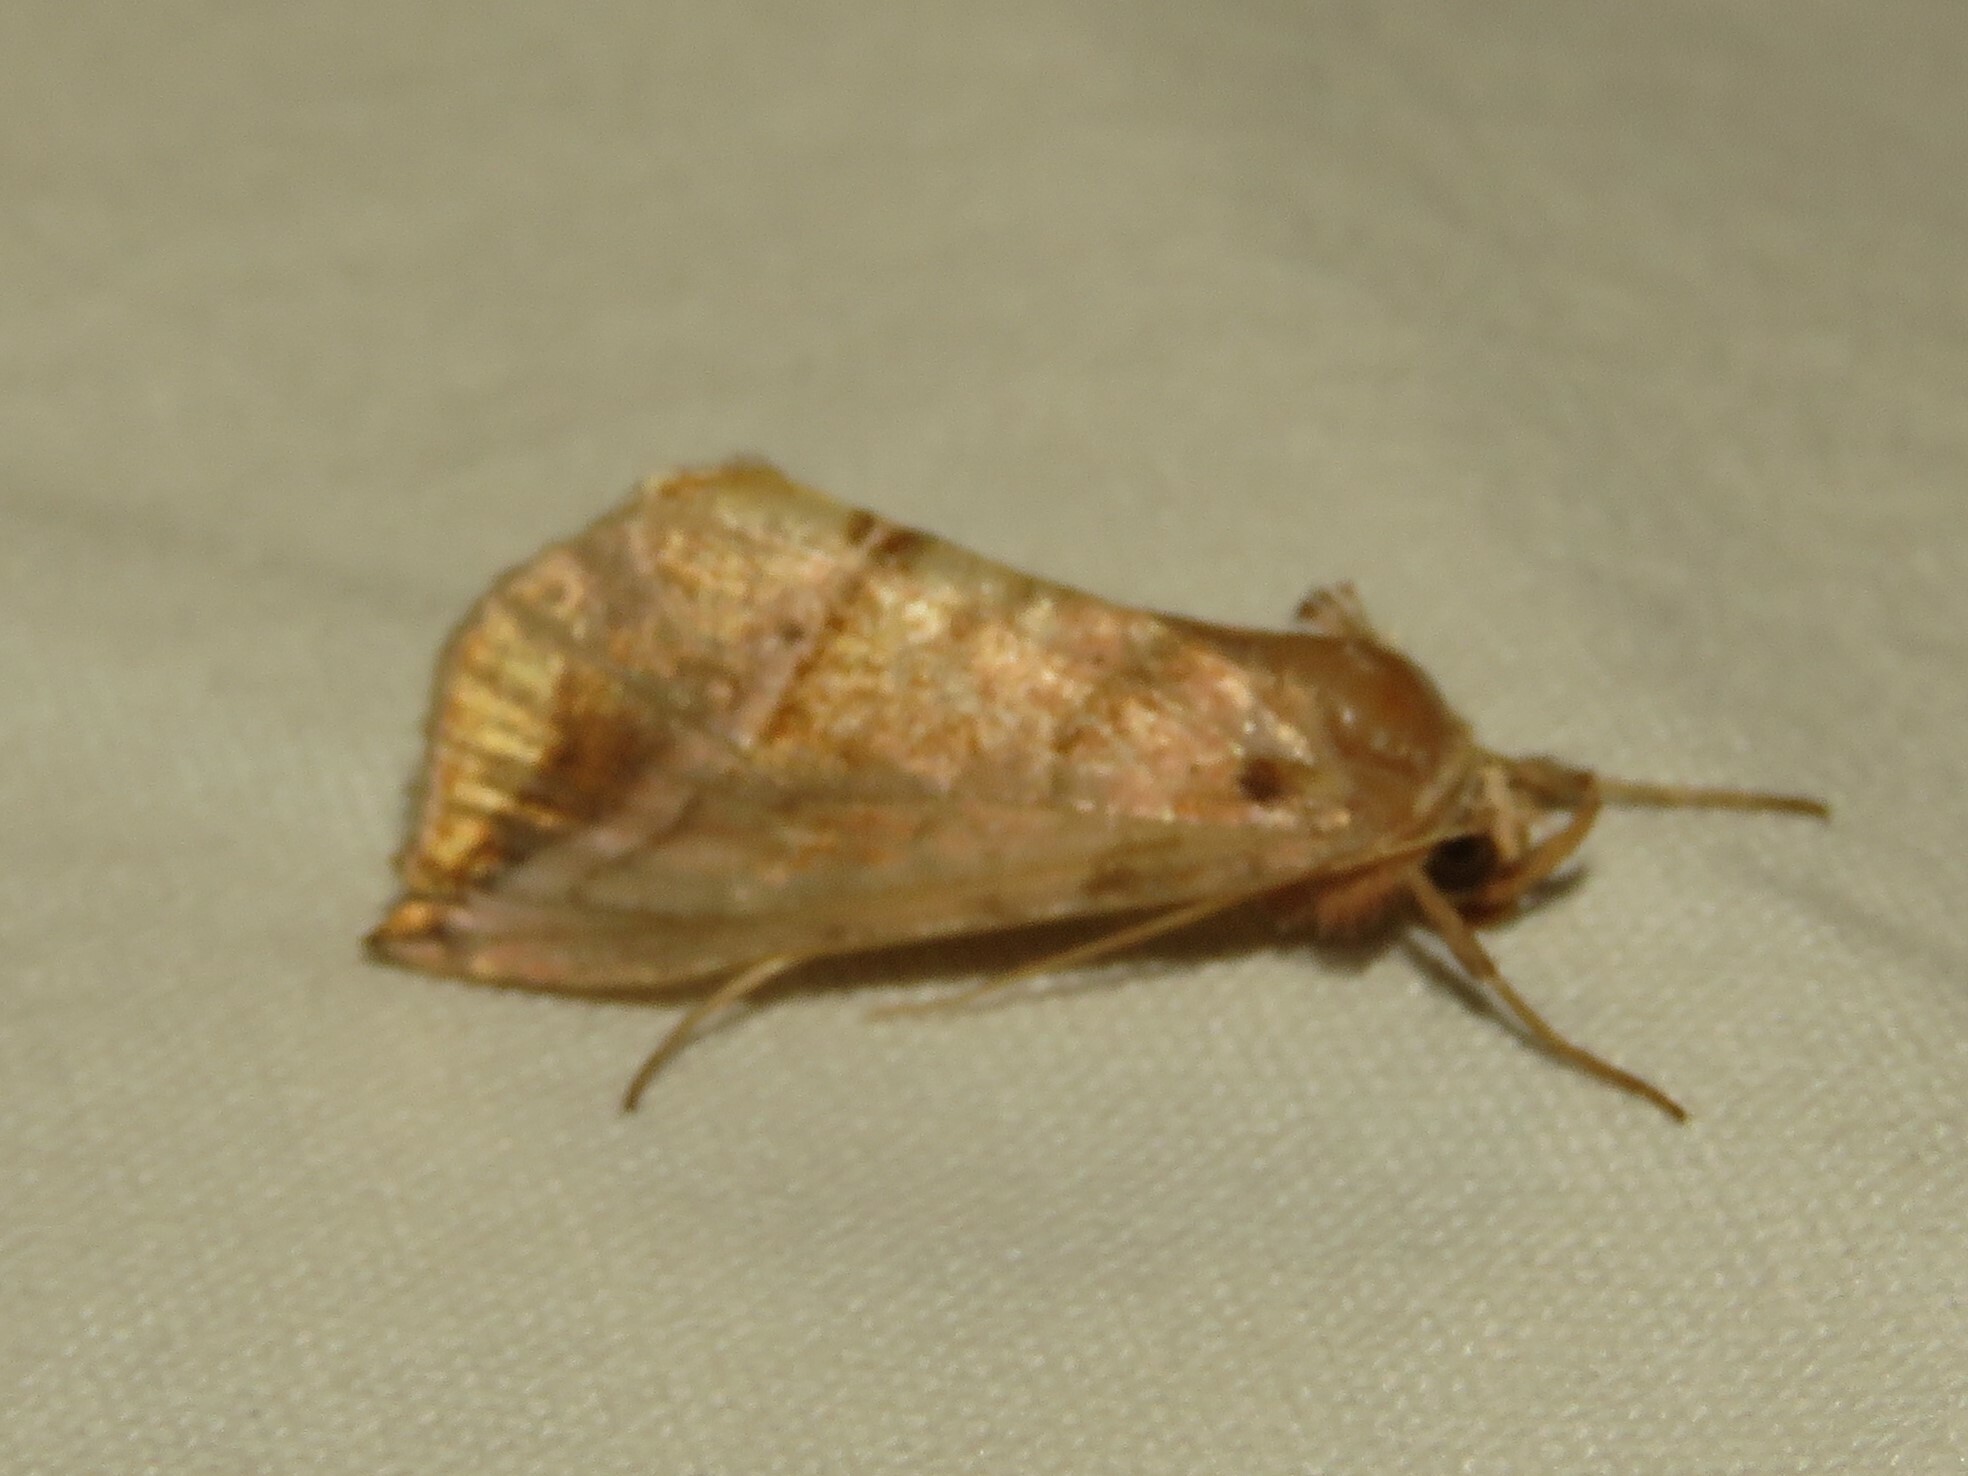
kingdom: Animalia
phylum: Arthropoda
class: Insecta
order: Lepidoptera
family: Noctuidae
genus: Pseudeva
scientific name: Pseudeva purpurigera
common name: Straight-lined looper moth
